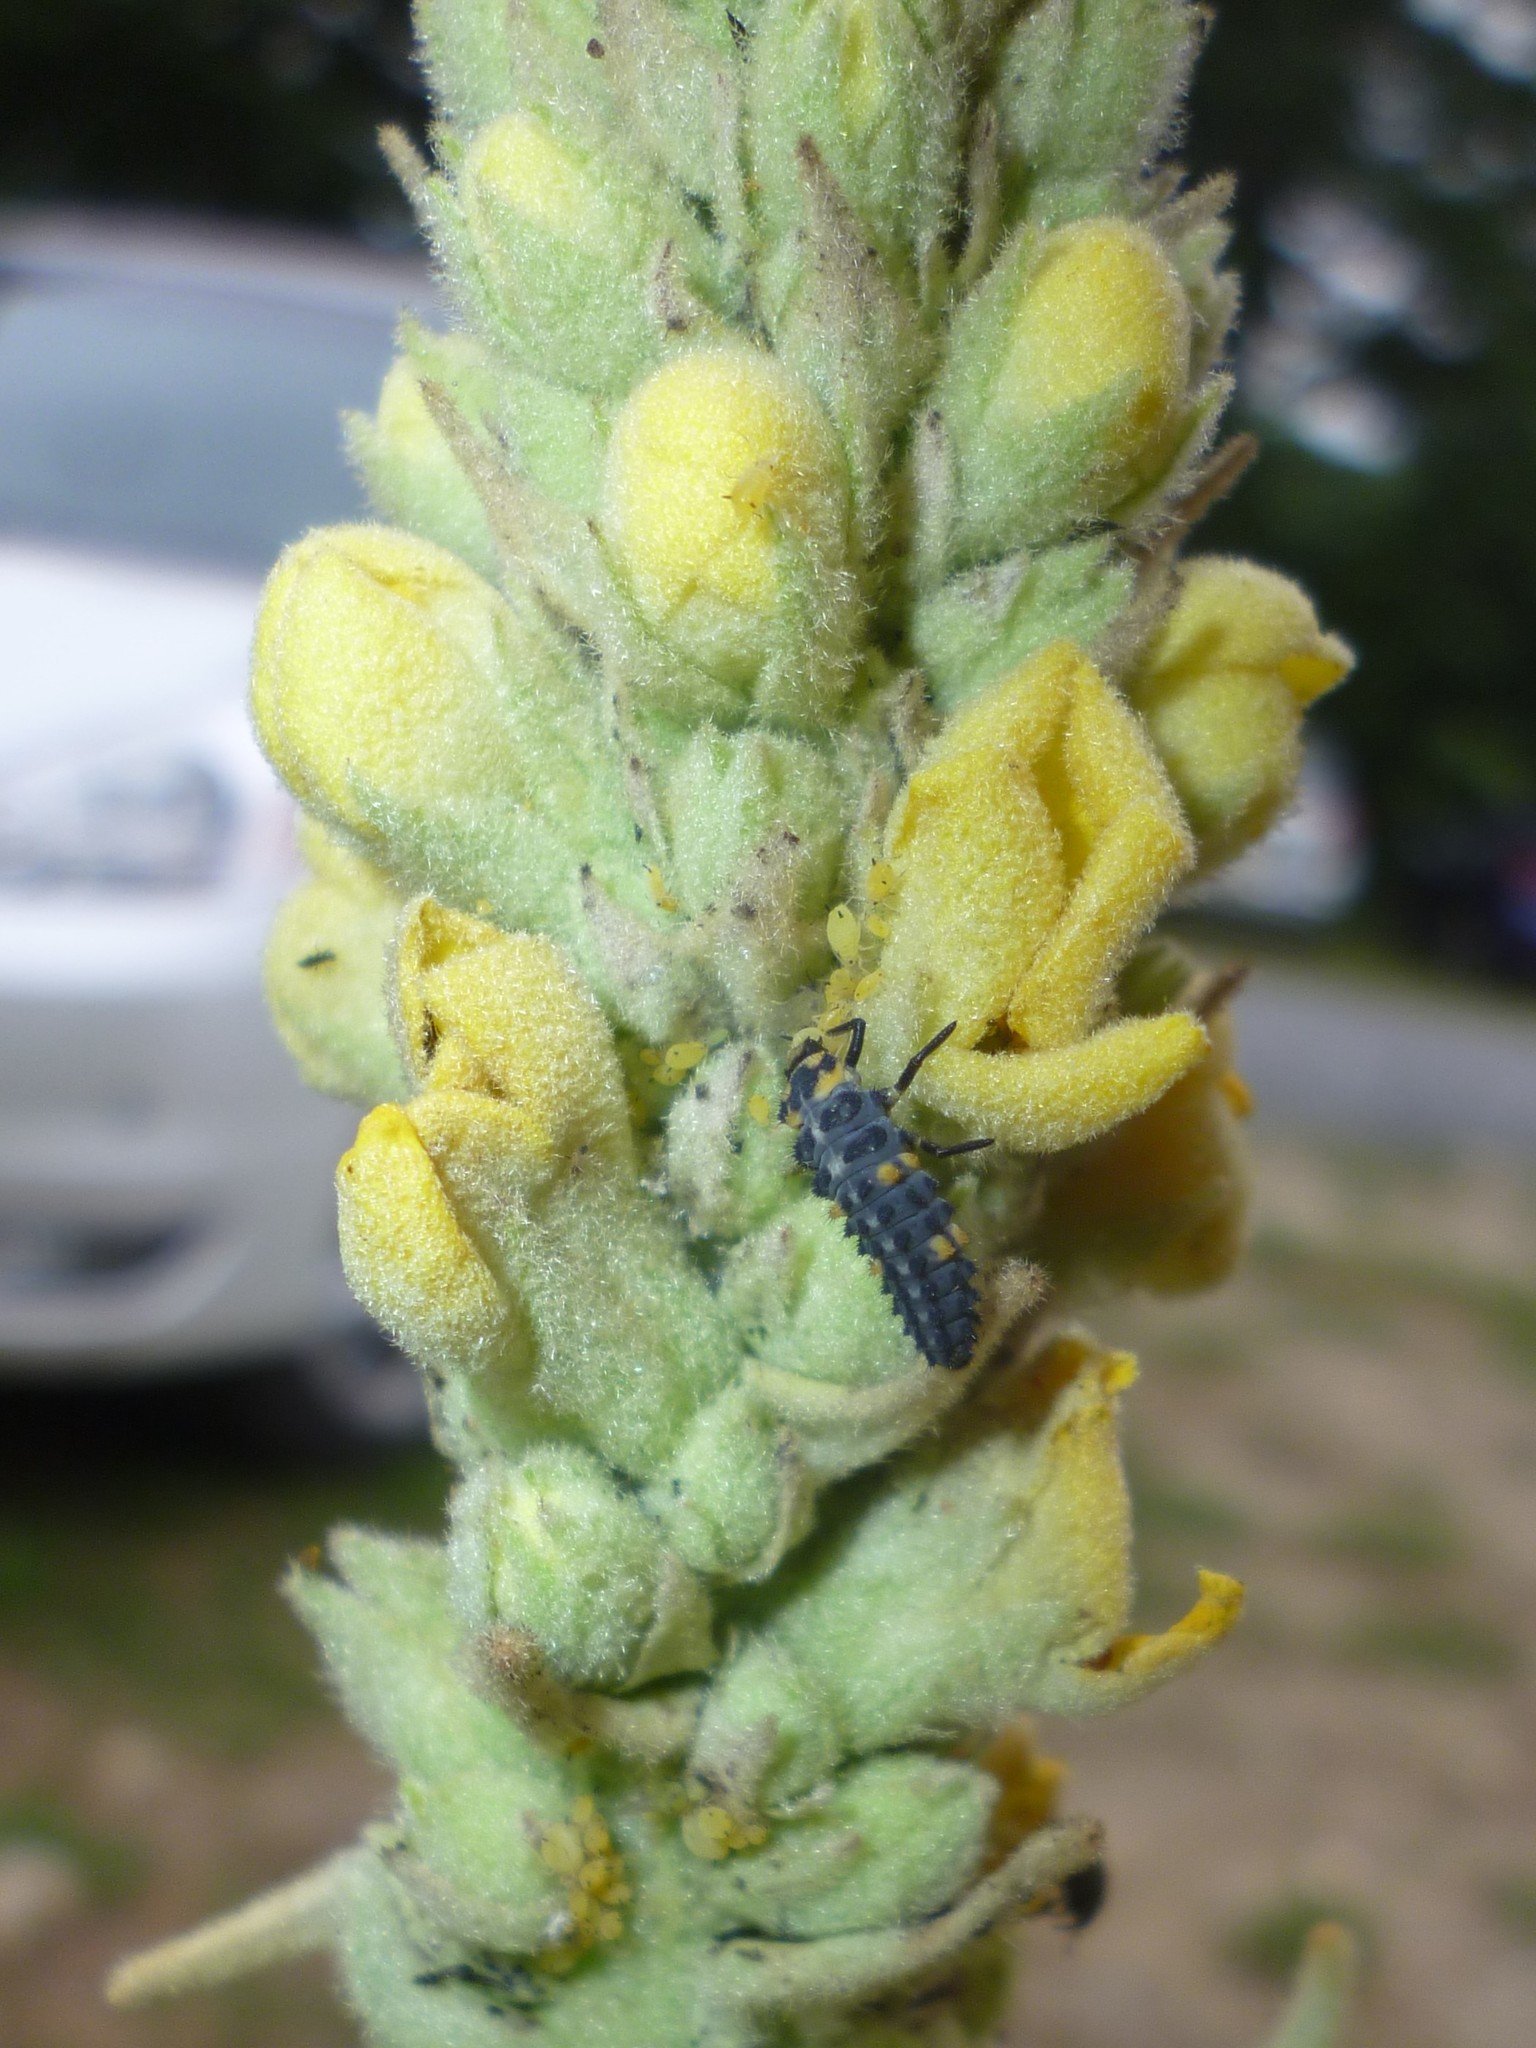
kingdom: Animalia
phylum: Arthropoda
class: Insecta
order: Hemiptera
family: Aphididae
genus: Aphis
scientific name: Aphis verbasci
